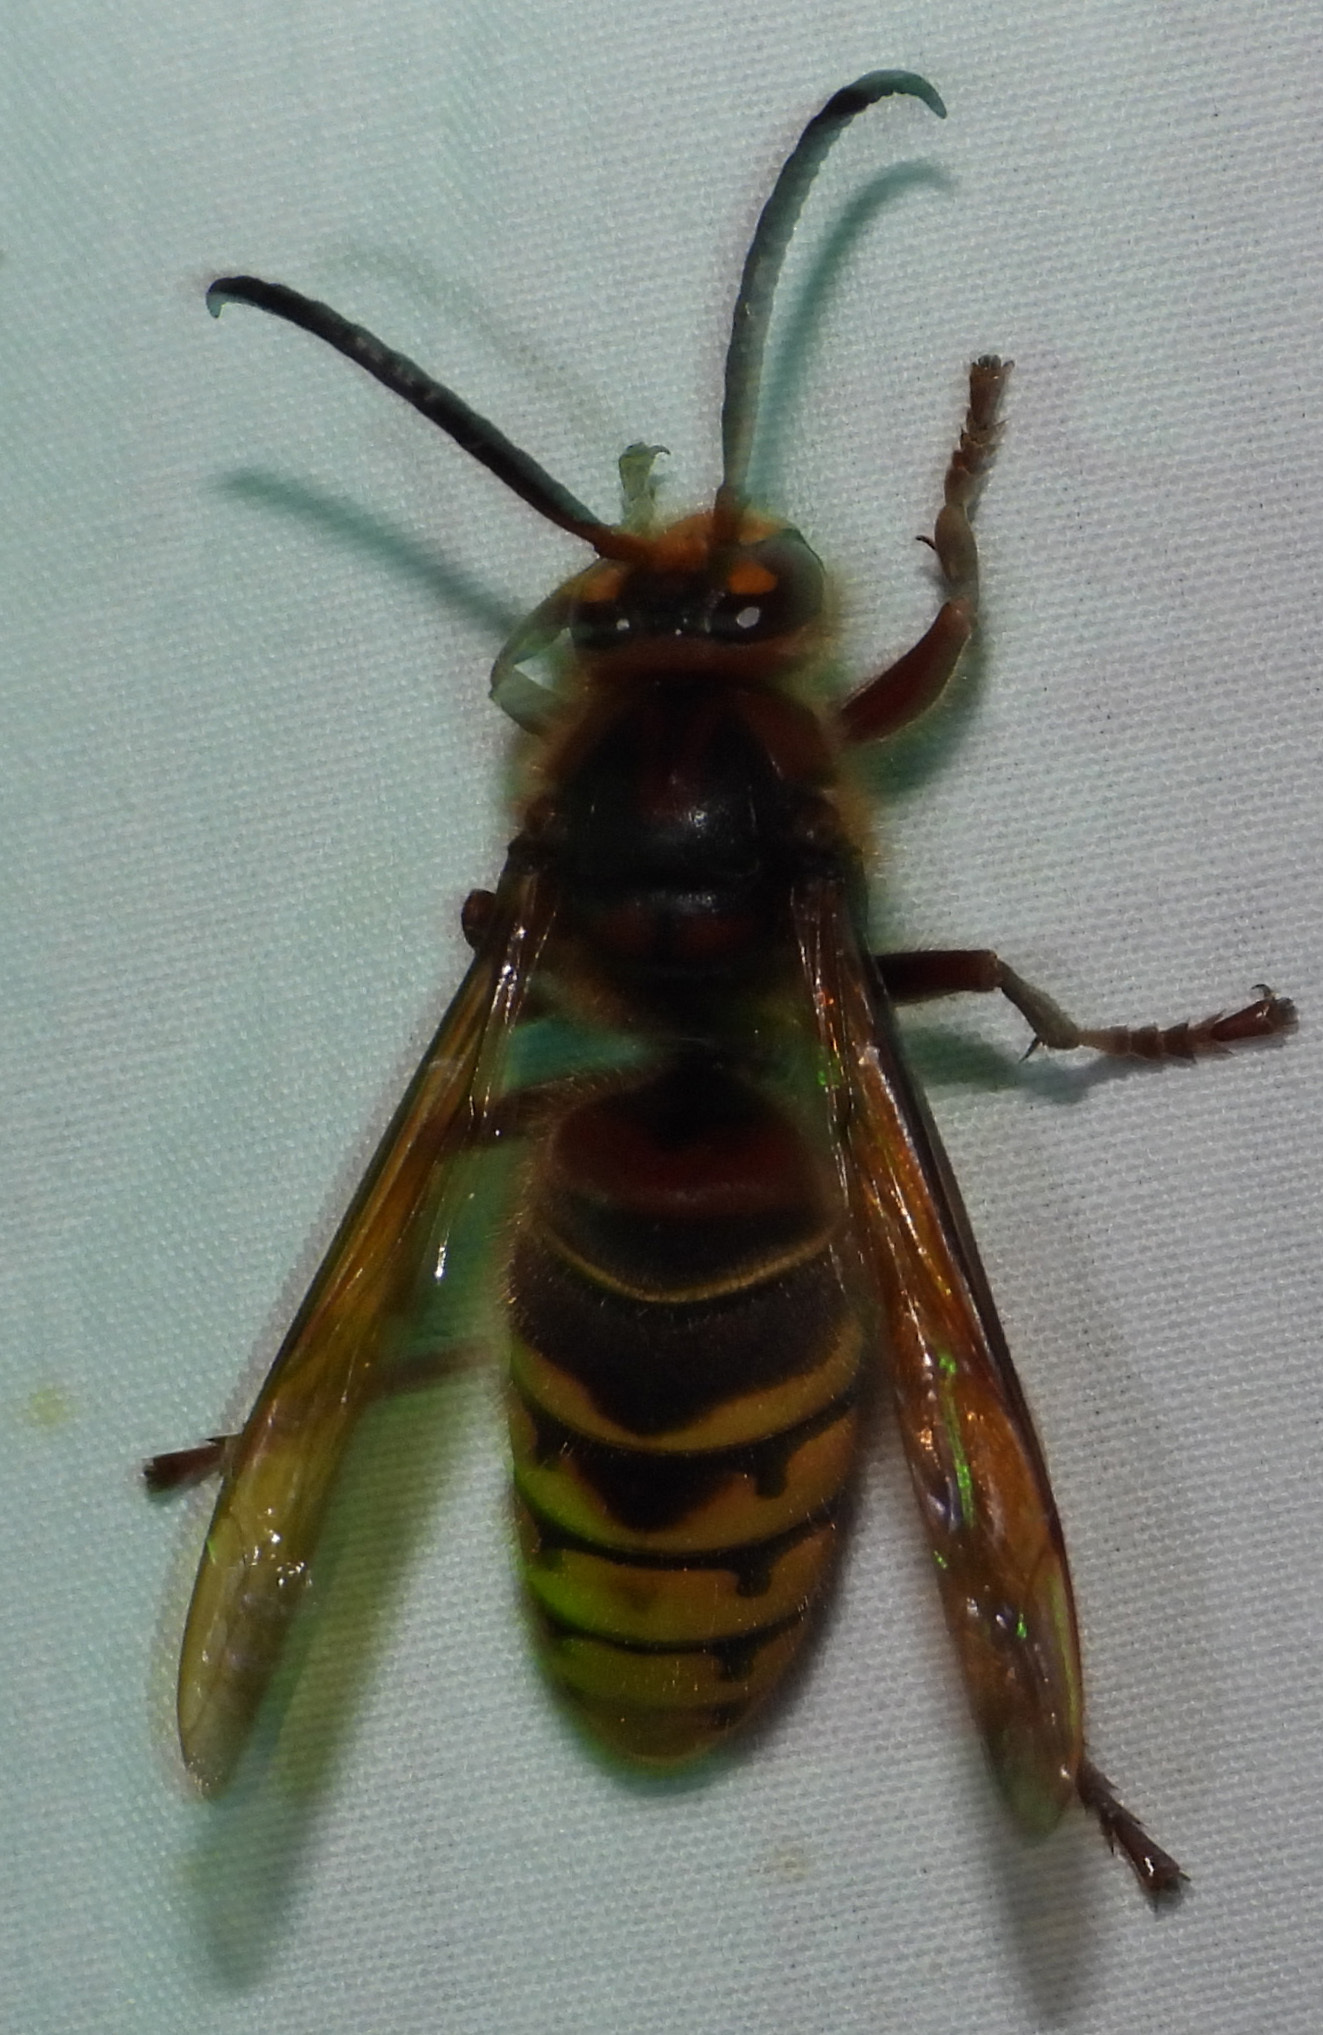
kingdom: Animalia
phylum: Arthropoda
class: Insecta
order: Hymenoptera
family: Vespidae
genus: Vespa
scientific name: Vespa crabro
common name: Hornet
